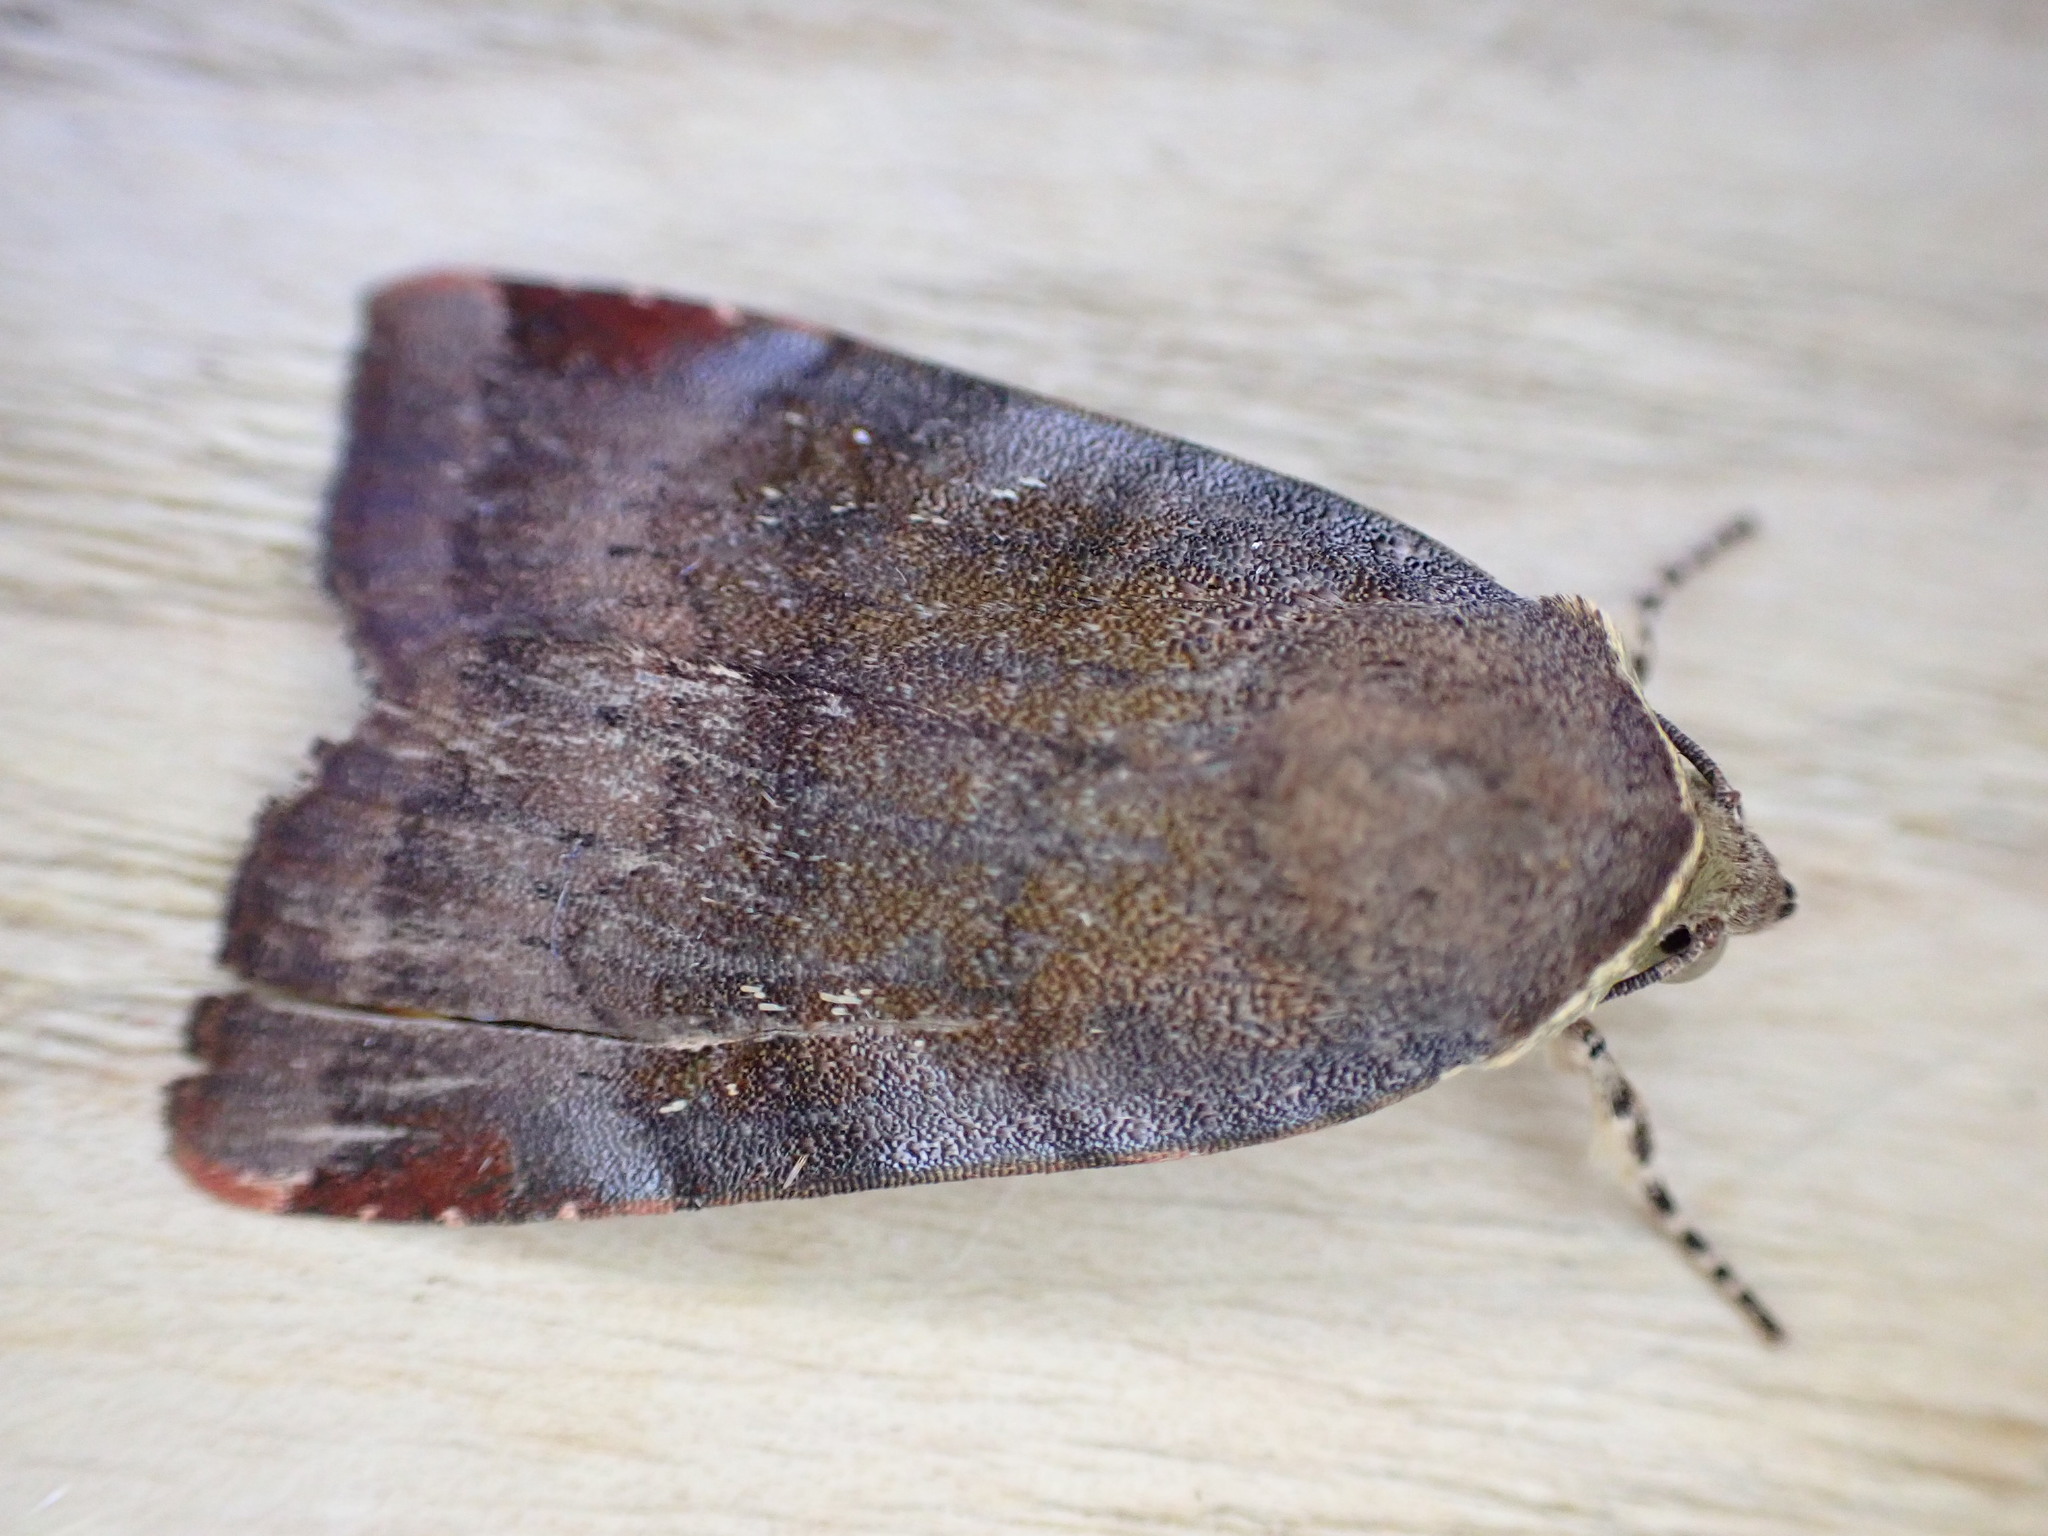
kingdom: Animalia
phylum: Arthropoda
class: Insecta
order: Lepidoptera
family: Noctuidae
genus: Noctua
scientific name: Noctua janthe
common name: Lesser broad-bordered yellow underwing
